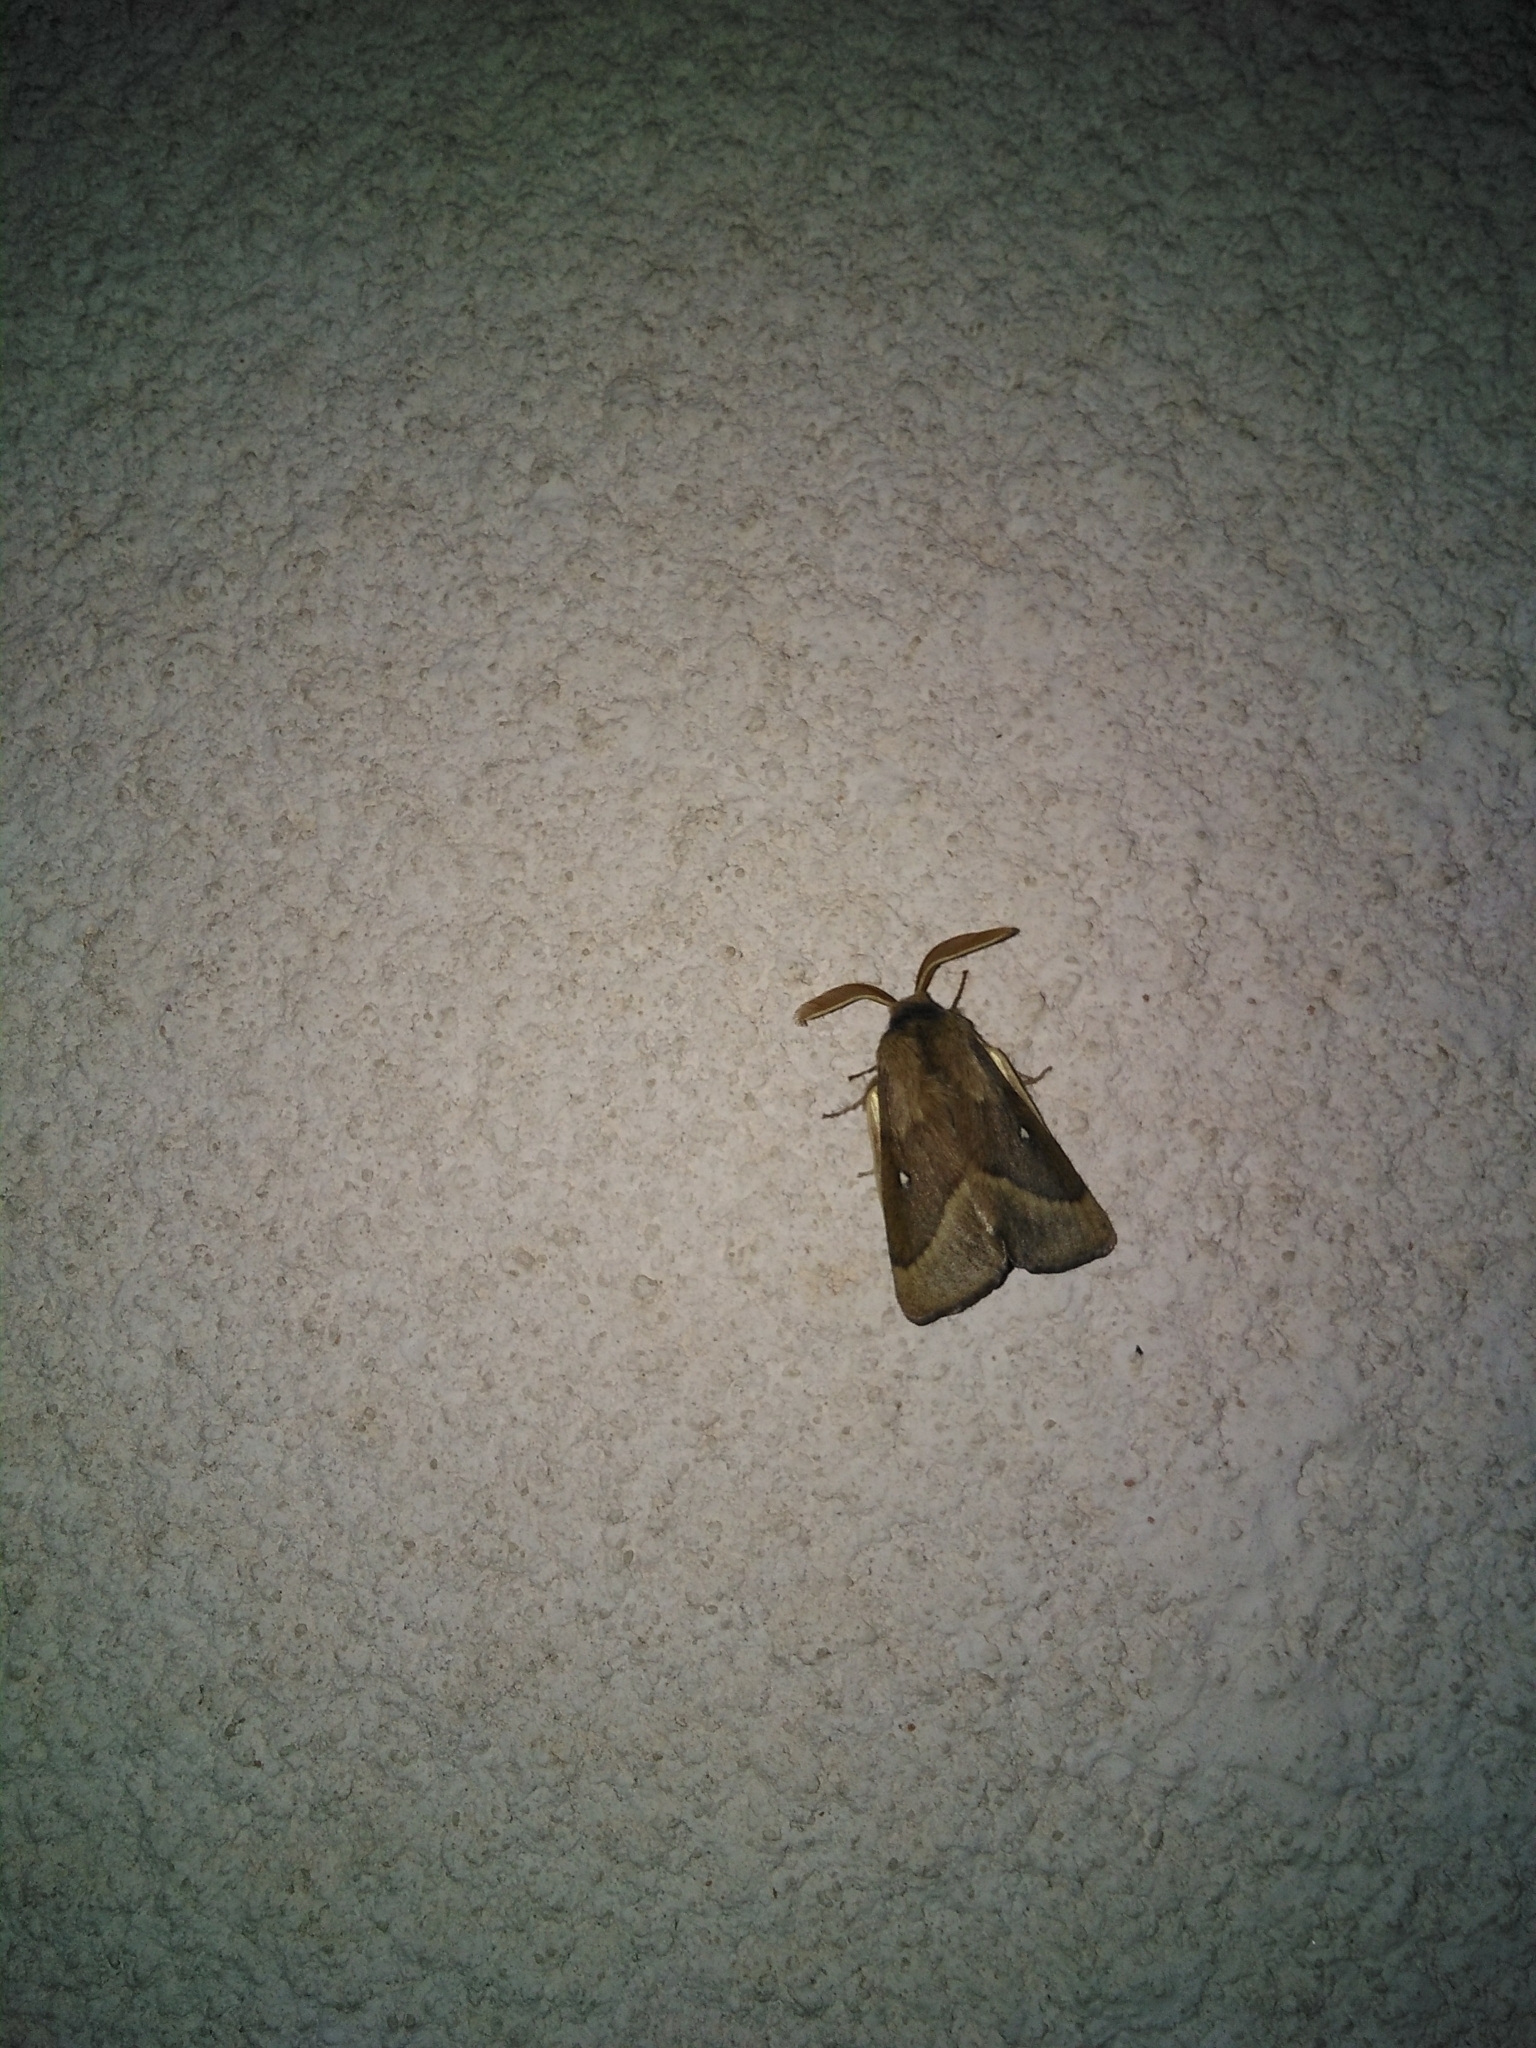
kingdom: Animalia
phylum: Arthropoda
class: Insecta
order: Lepidoptera
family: Lasiocampidae
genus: Lasiocampa
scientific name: Lasiocampa trifolii
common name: Grass eggar
